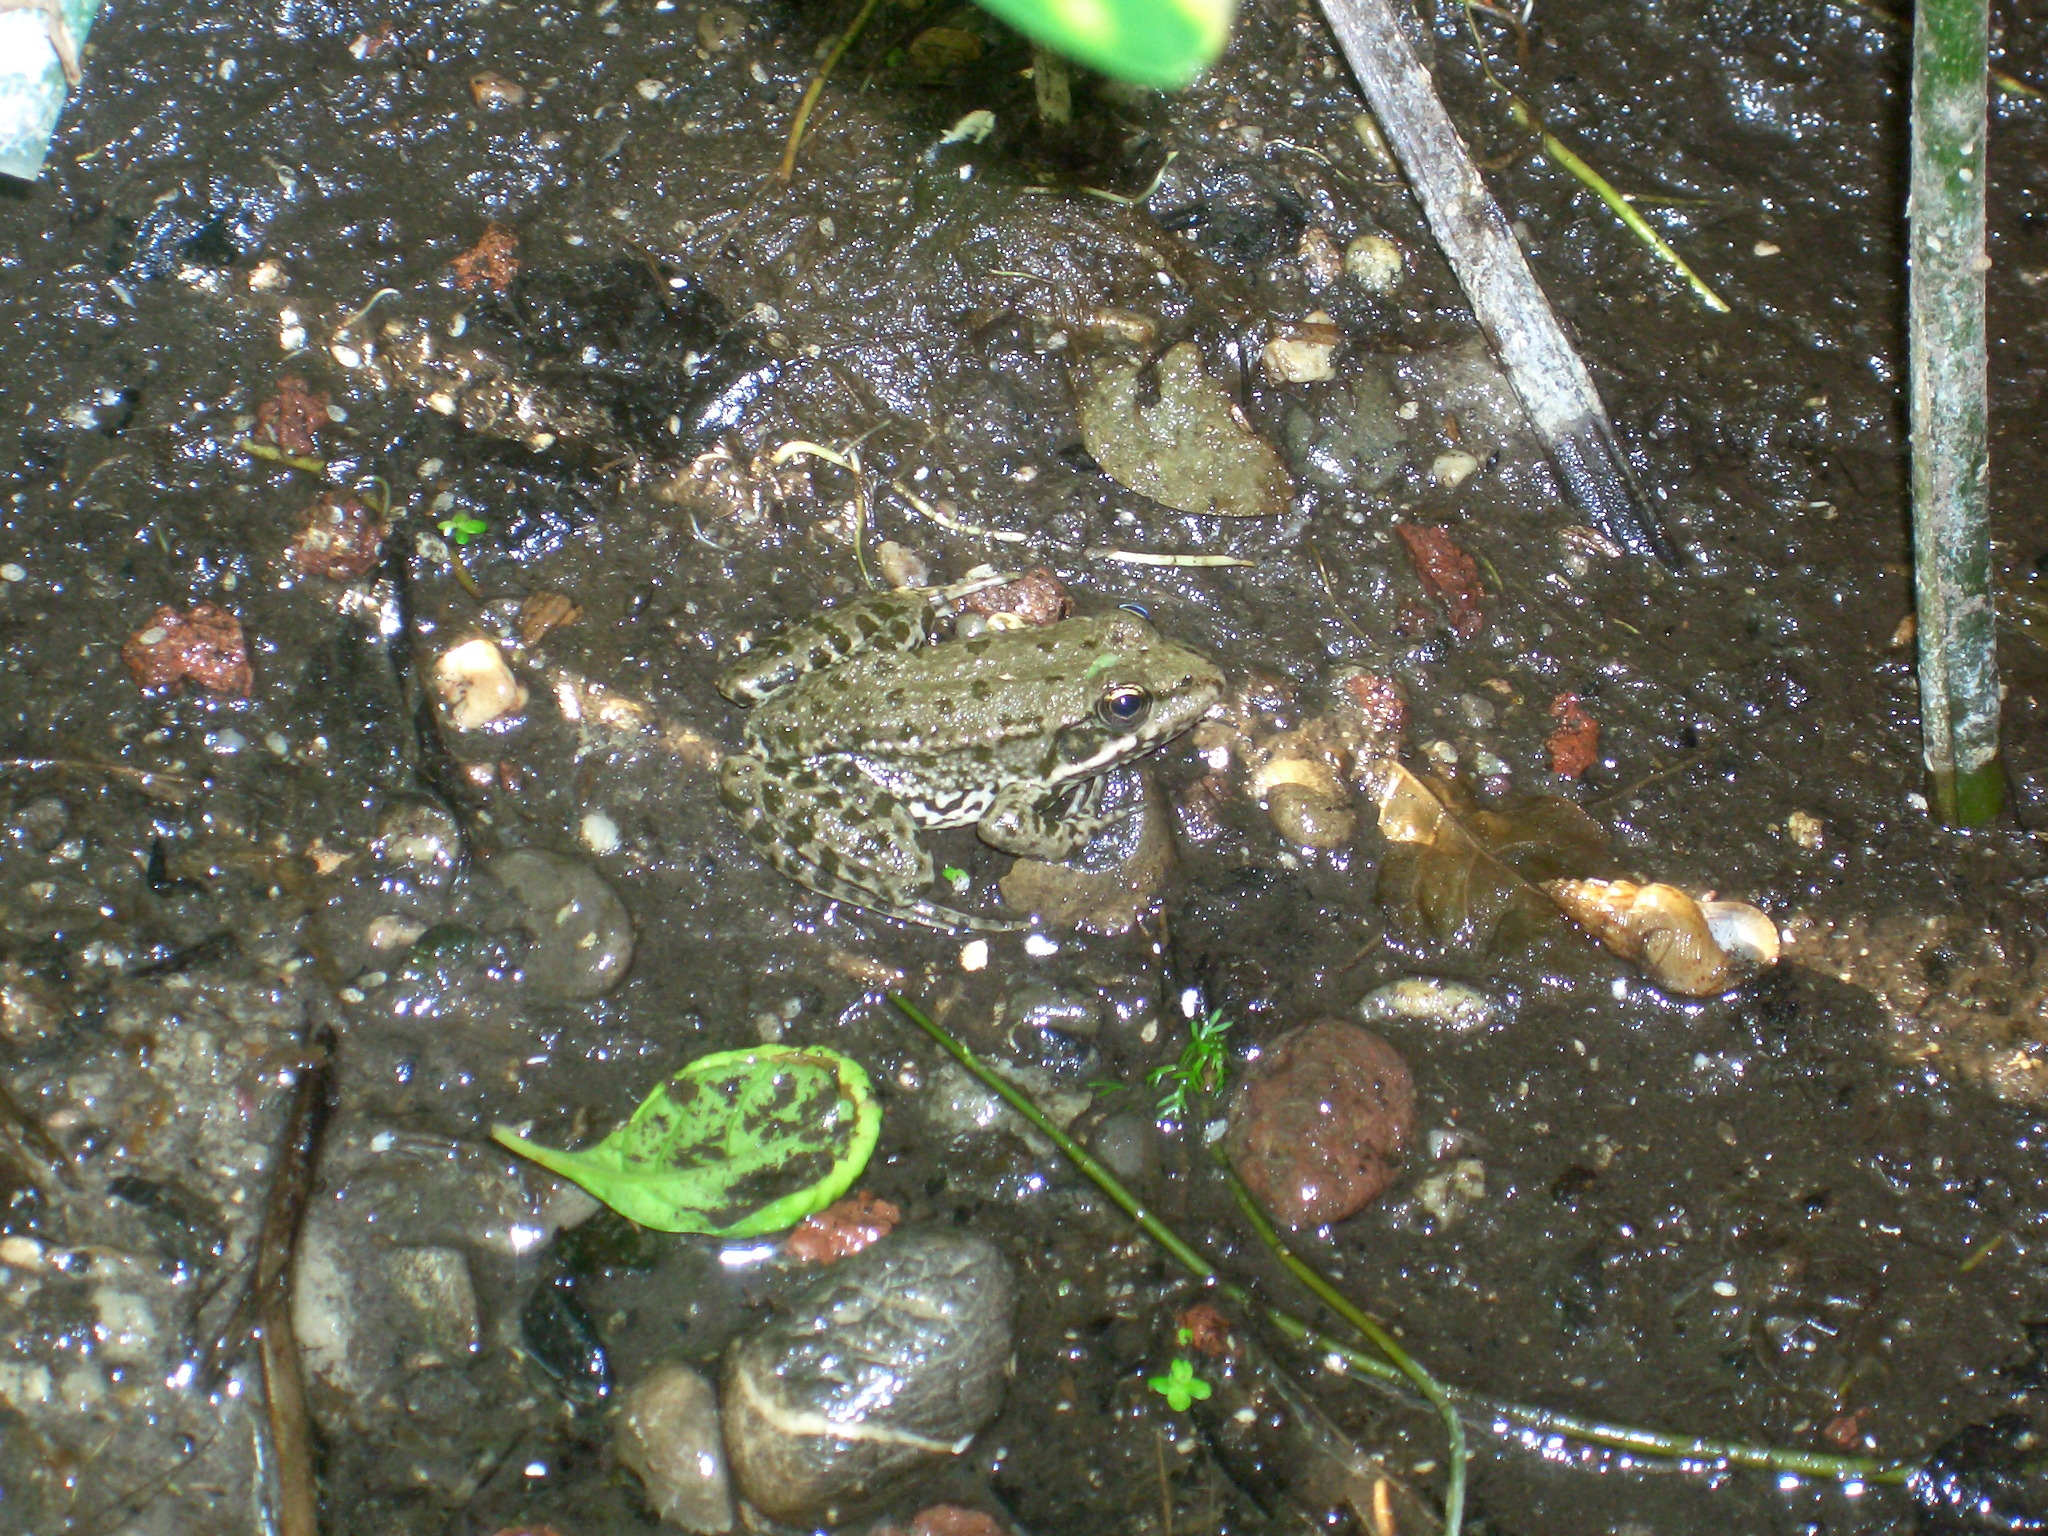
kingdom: Animalia
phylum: Chordata
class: Amphibia
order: Anura
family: Ranidae
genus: Pelophylax
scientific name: Pelophylax
